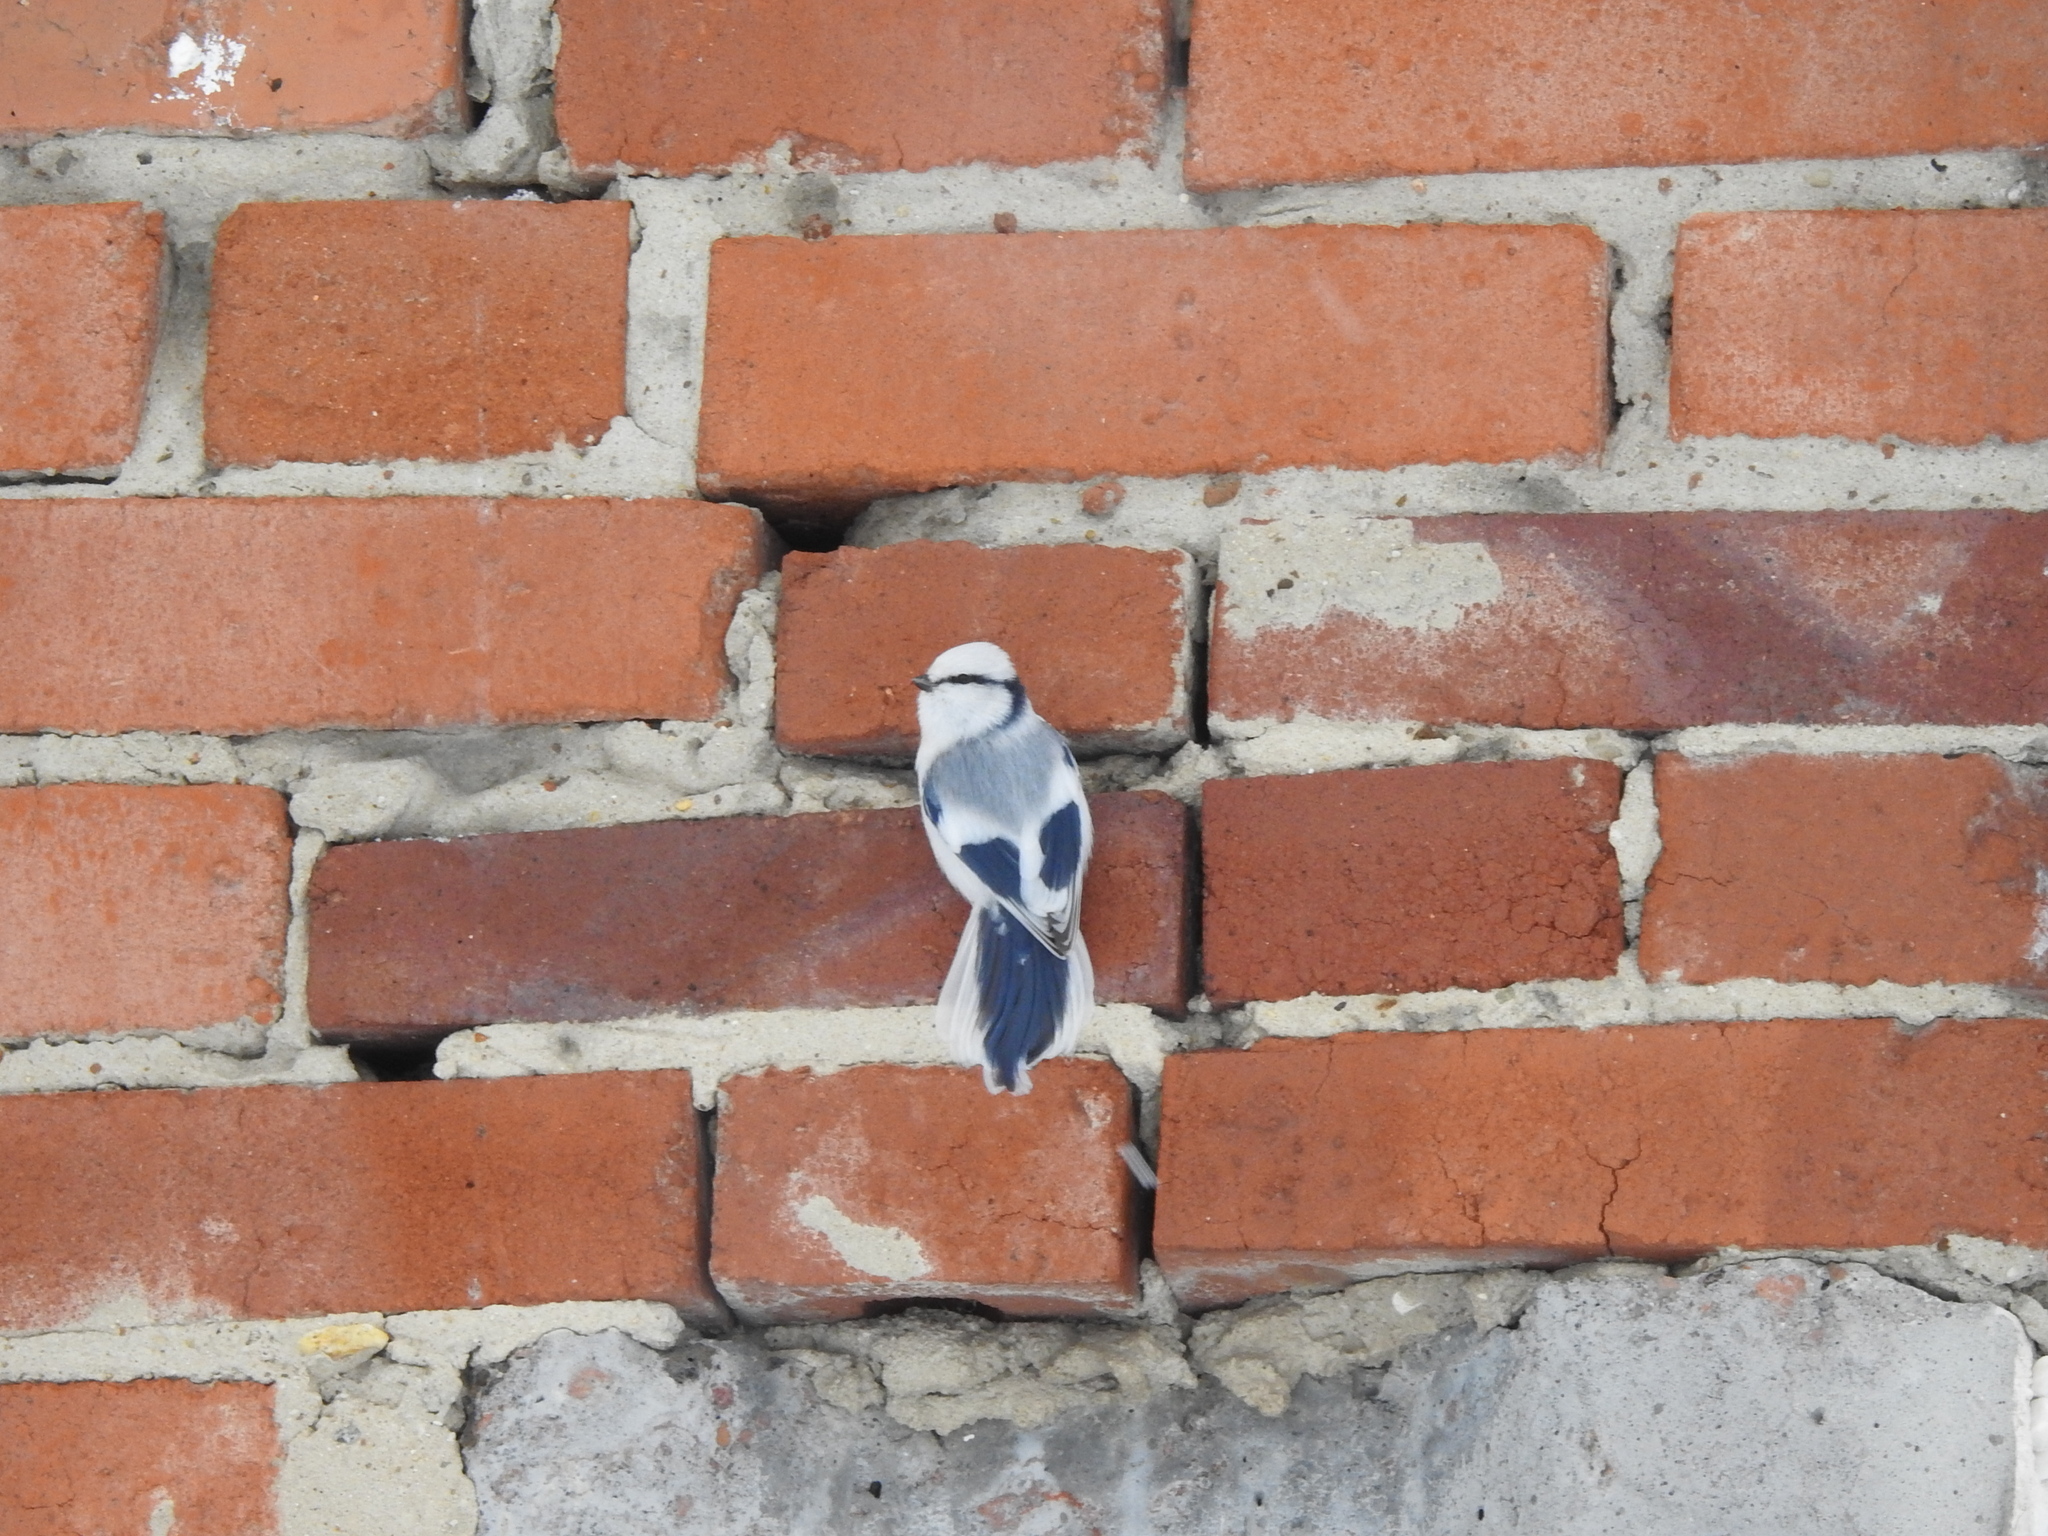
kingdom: Animalia
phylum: Chordata
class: Aves
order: Passeriformes
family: Paridae
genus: Cyanistes
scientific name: Cyanistes cyanus
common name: Azure tit
